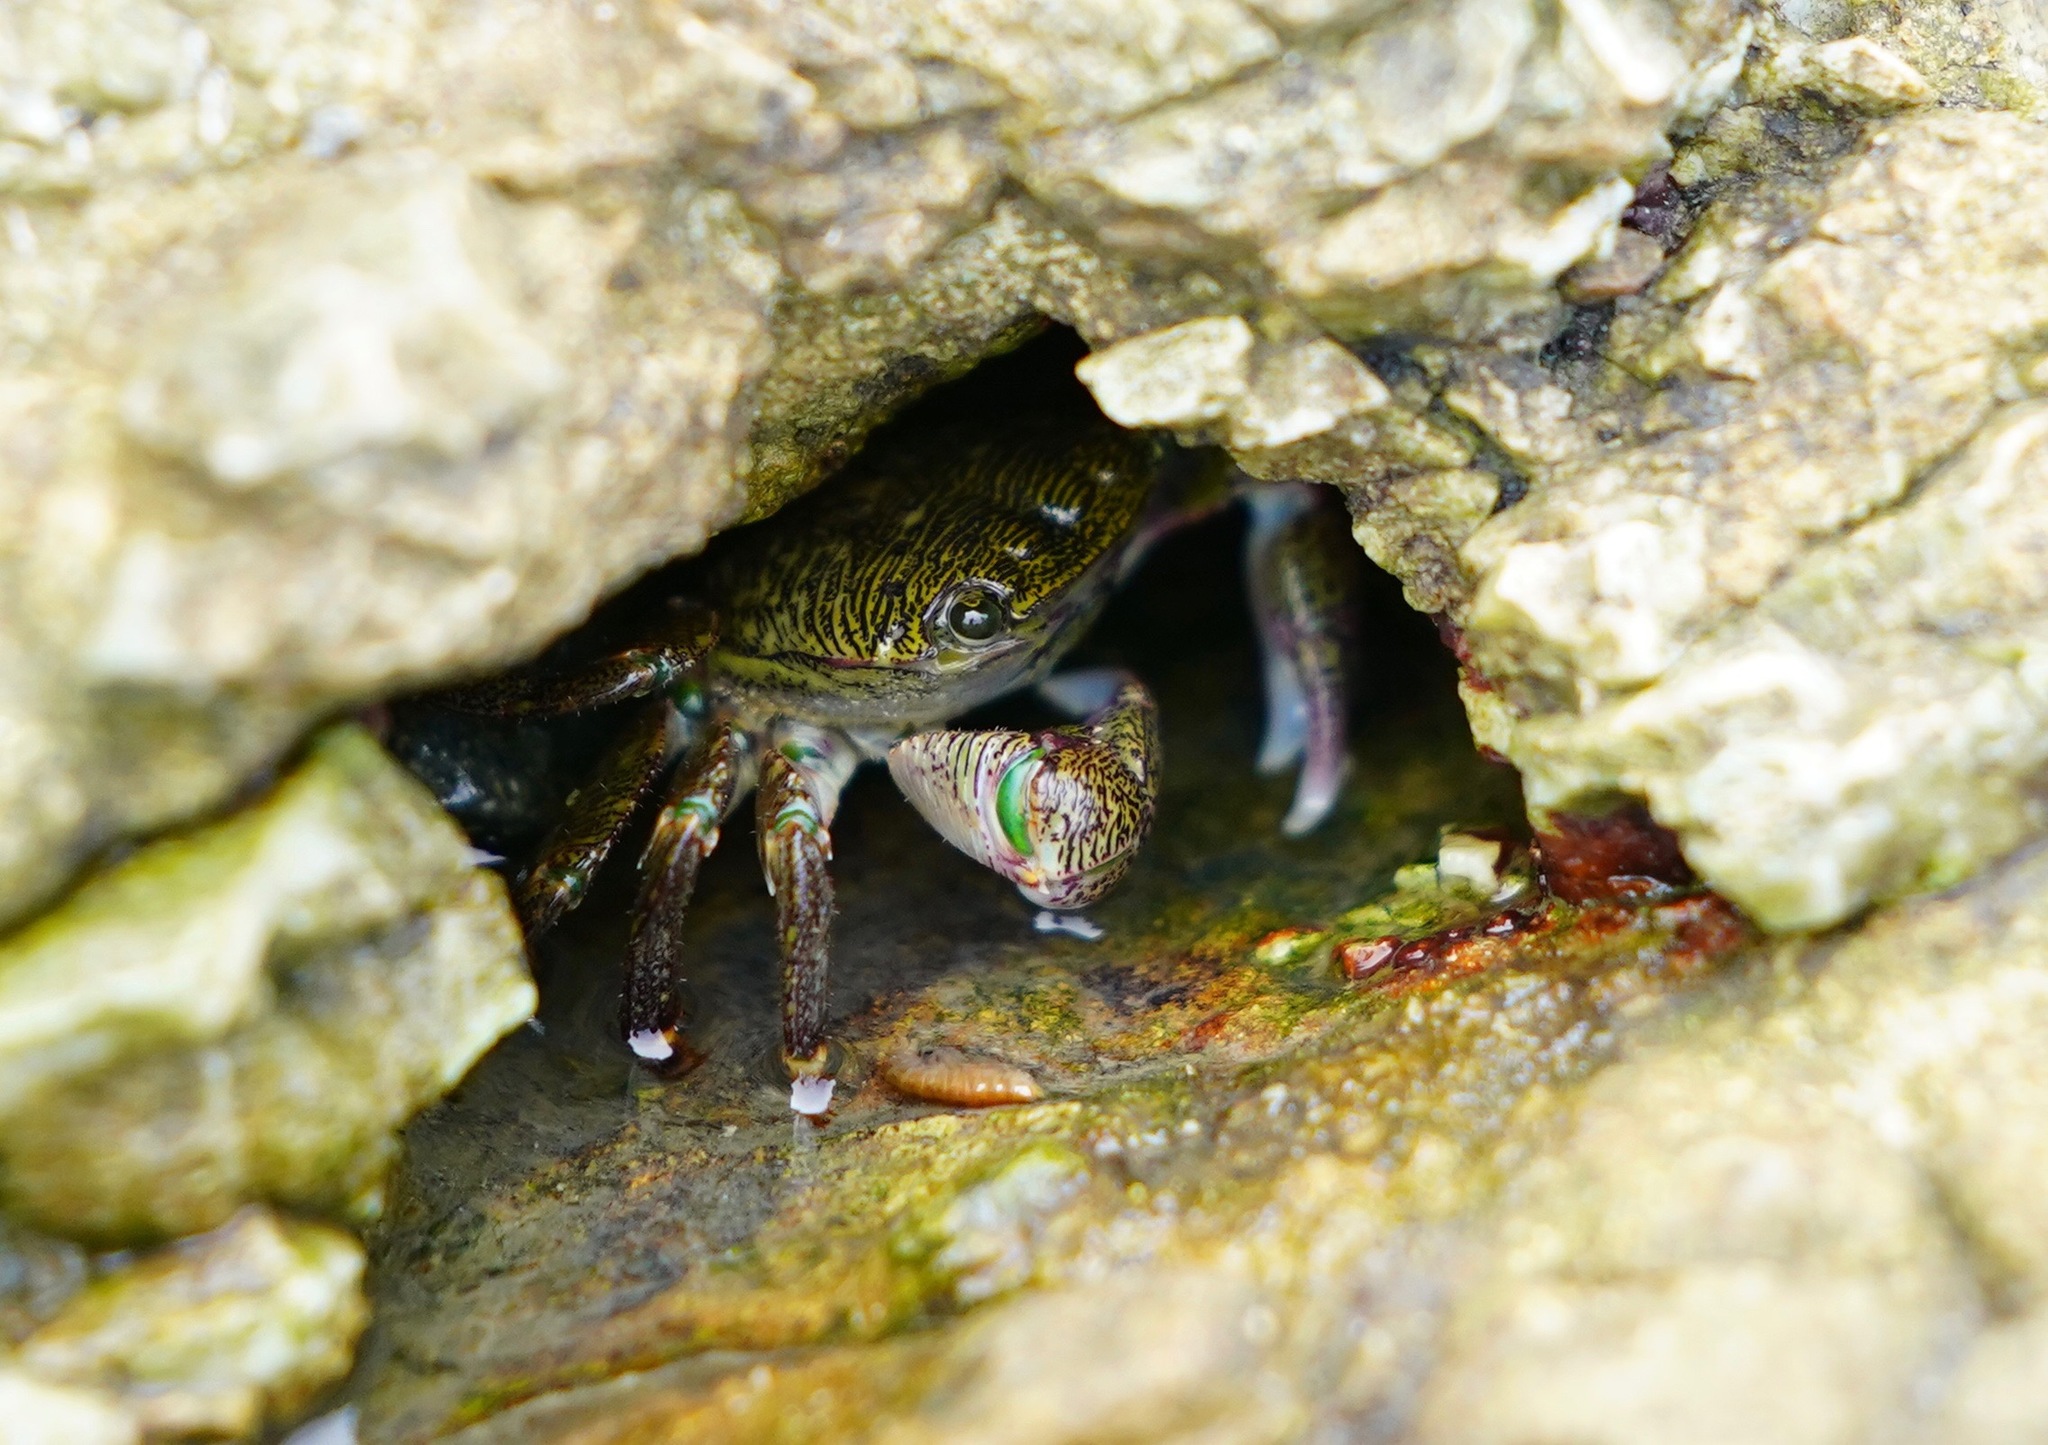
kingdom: Animalia
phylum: Arthropoda
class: Malacostraca
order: Decapoda
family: Grapsidae
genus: Pachygrapsus
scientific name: Pachygrapsus crassipes
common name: Striped shore crab
